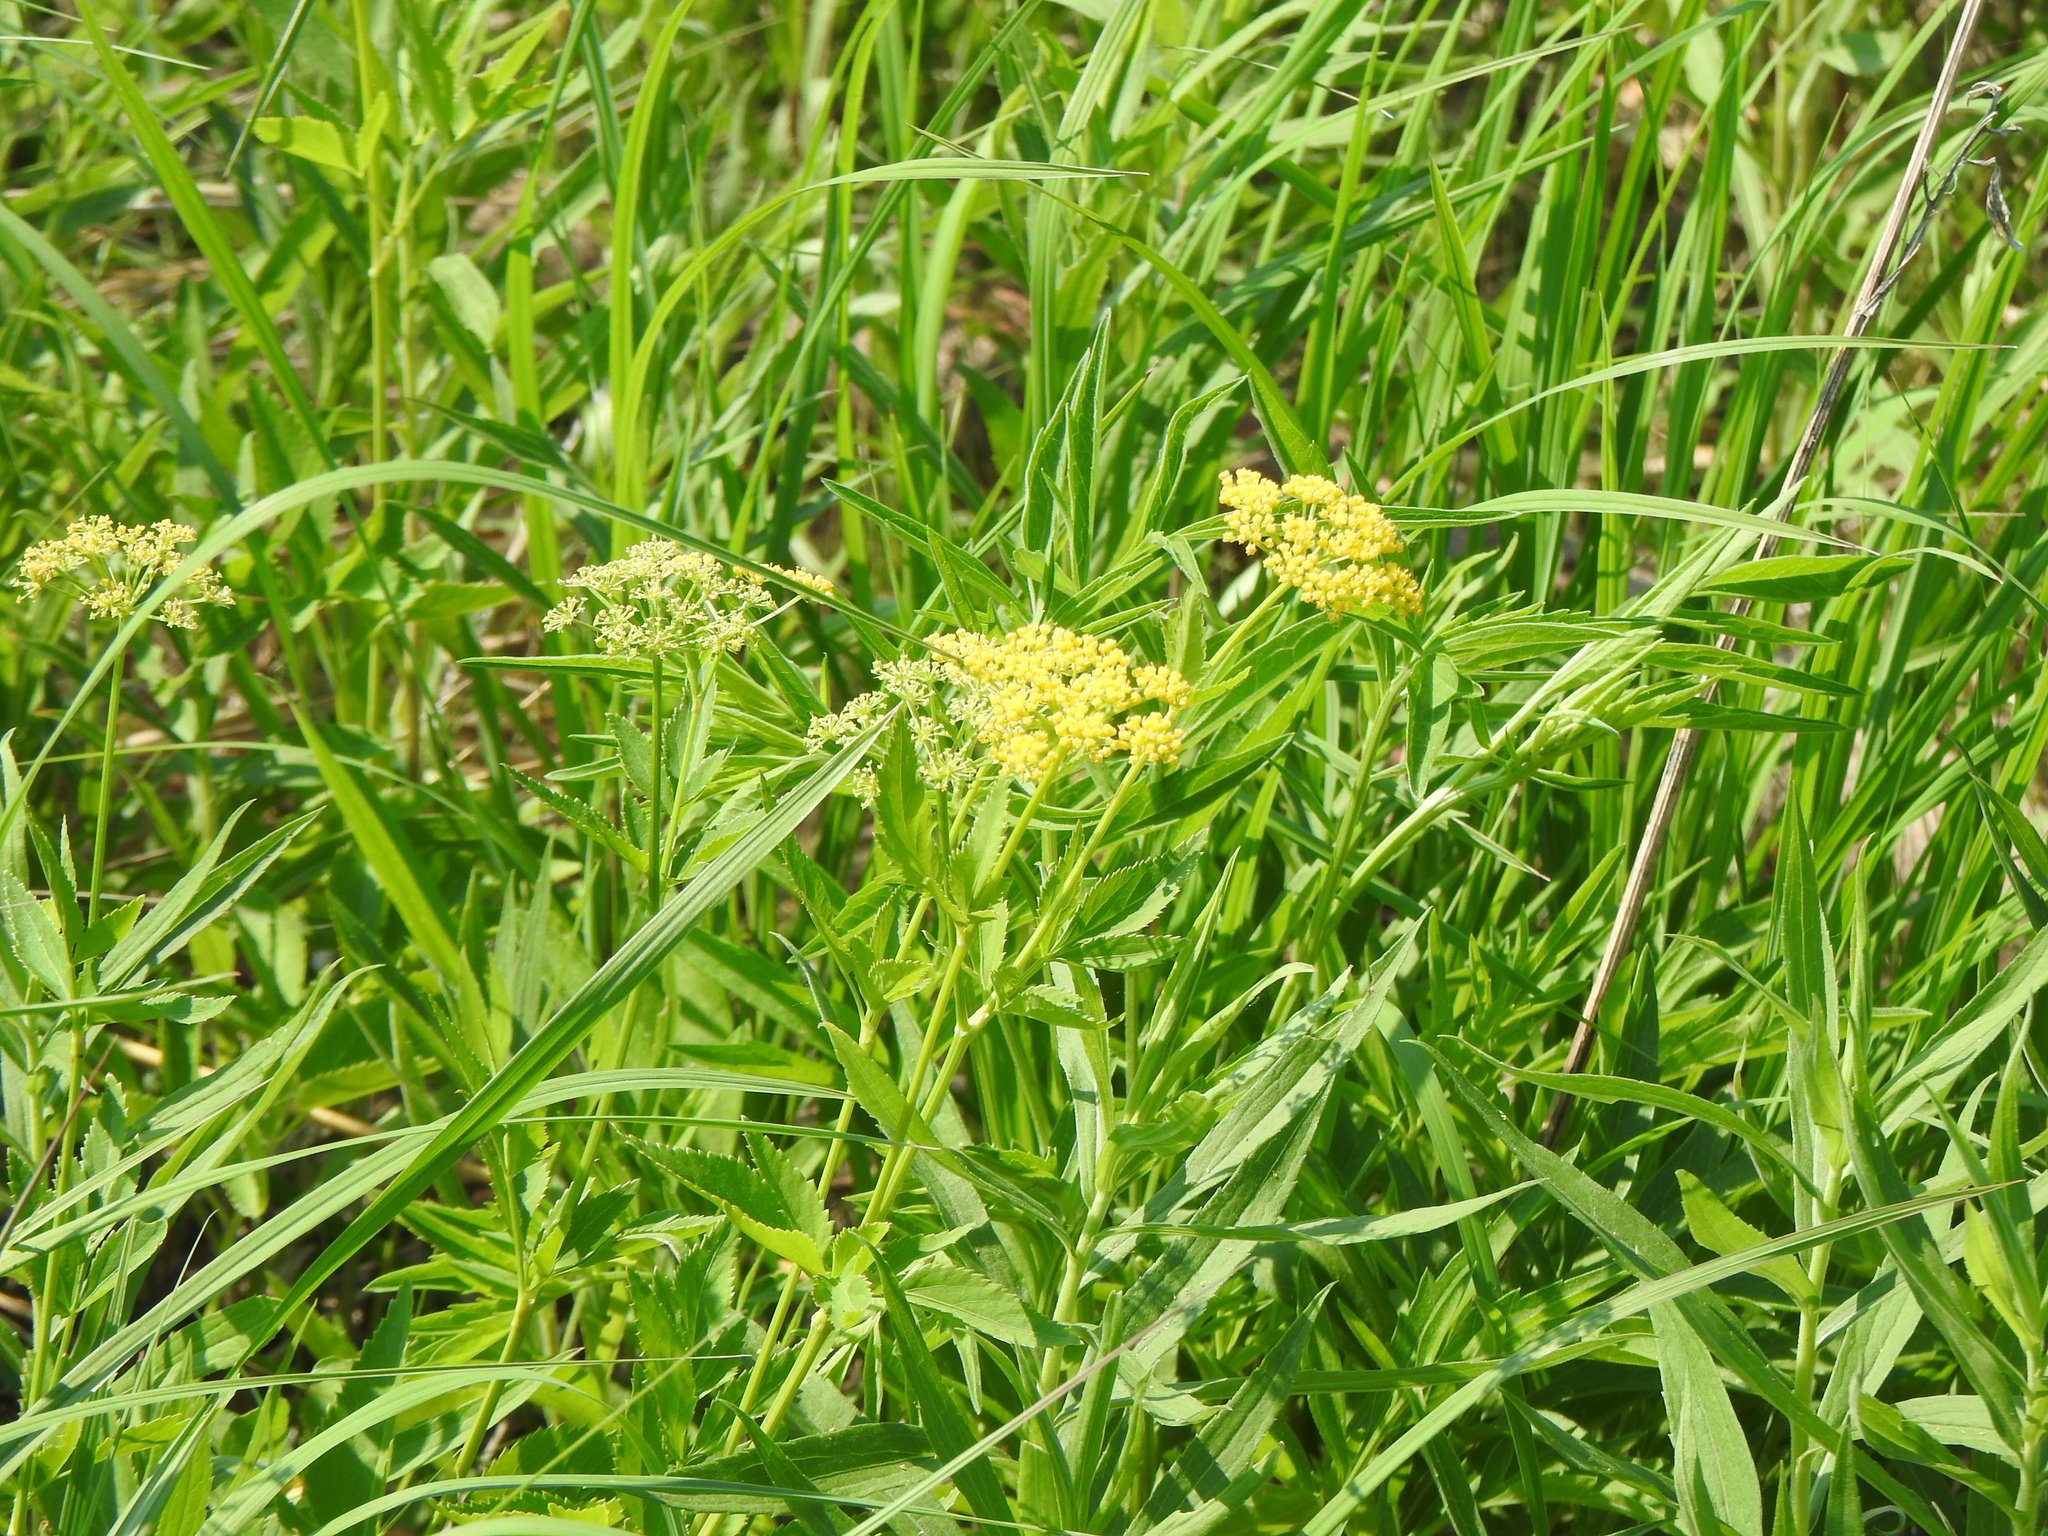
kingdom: Plantae
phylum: Tracheophyta
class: Magnoliopsida
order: Apiales
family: Apiaceae
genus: Zizia
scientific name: Zizia aurea
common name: Golden alexanders
